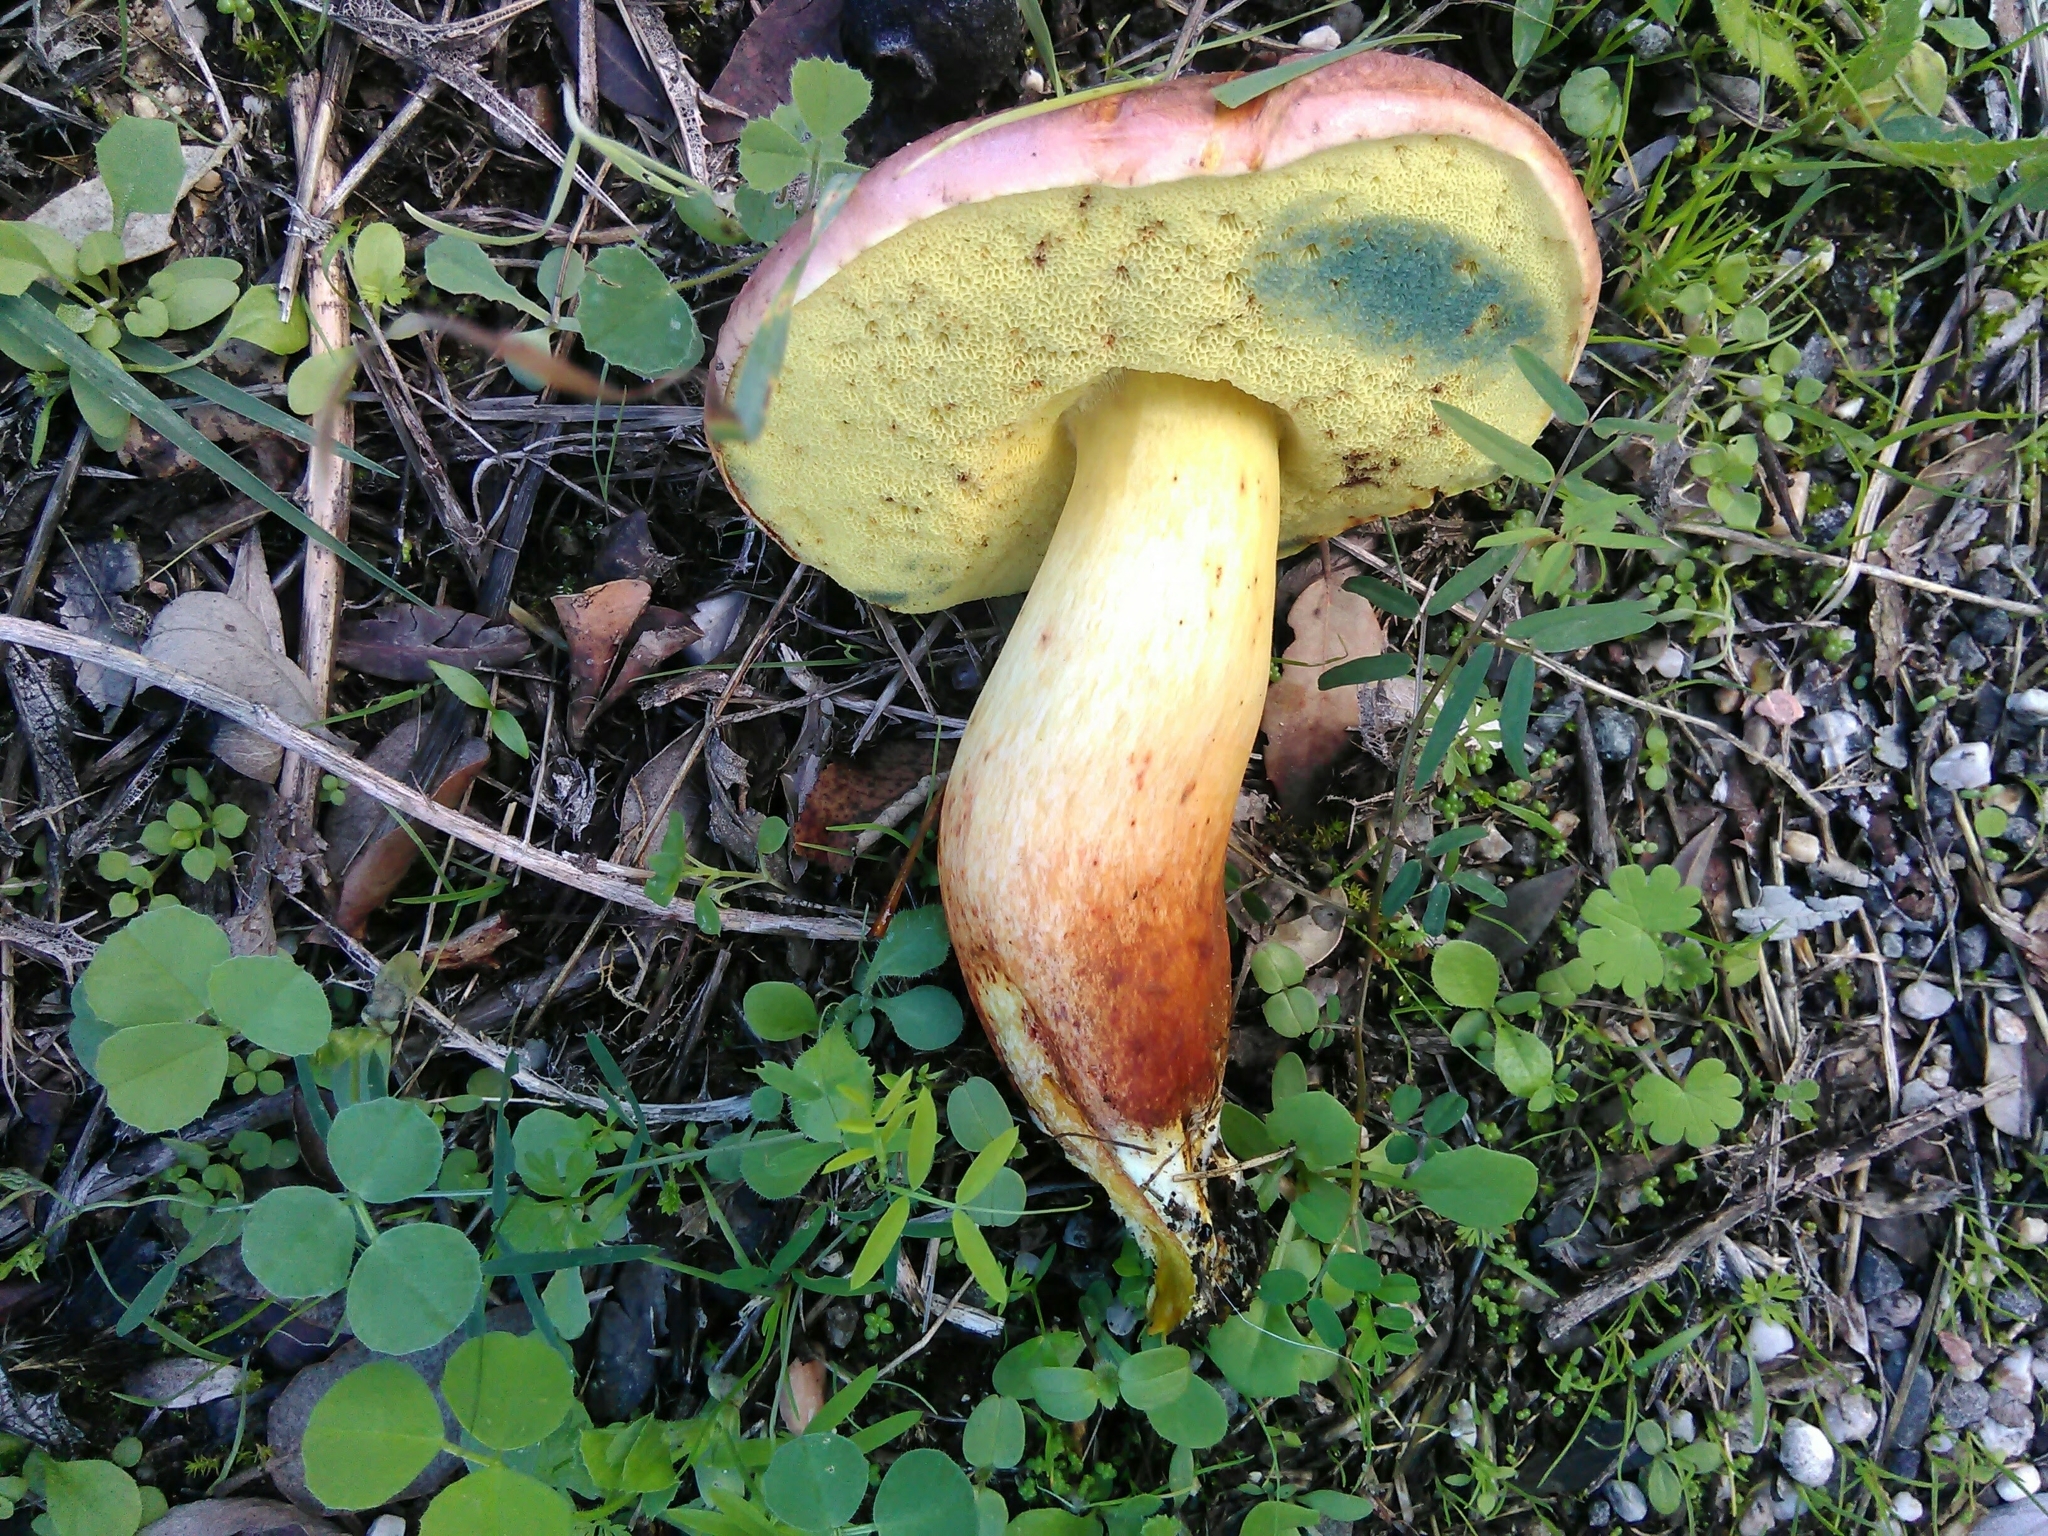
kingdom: Fungi
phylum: Basidiomycota
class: Agaricomycetes
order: Boletales
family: Boletaceae
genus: Xerocomellus
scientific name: Xerocomellus persicolor
